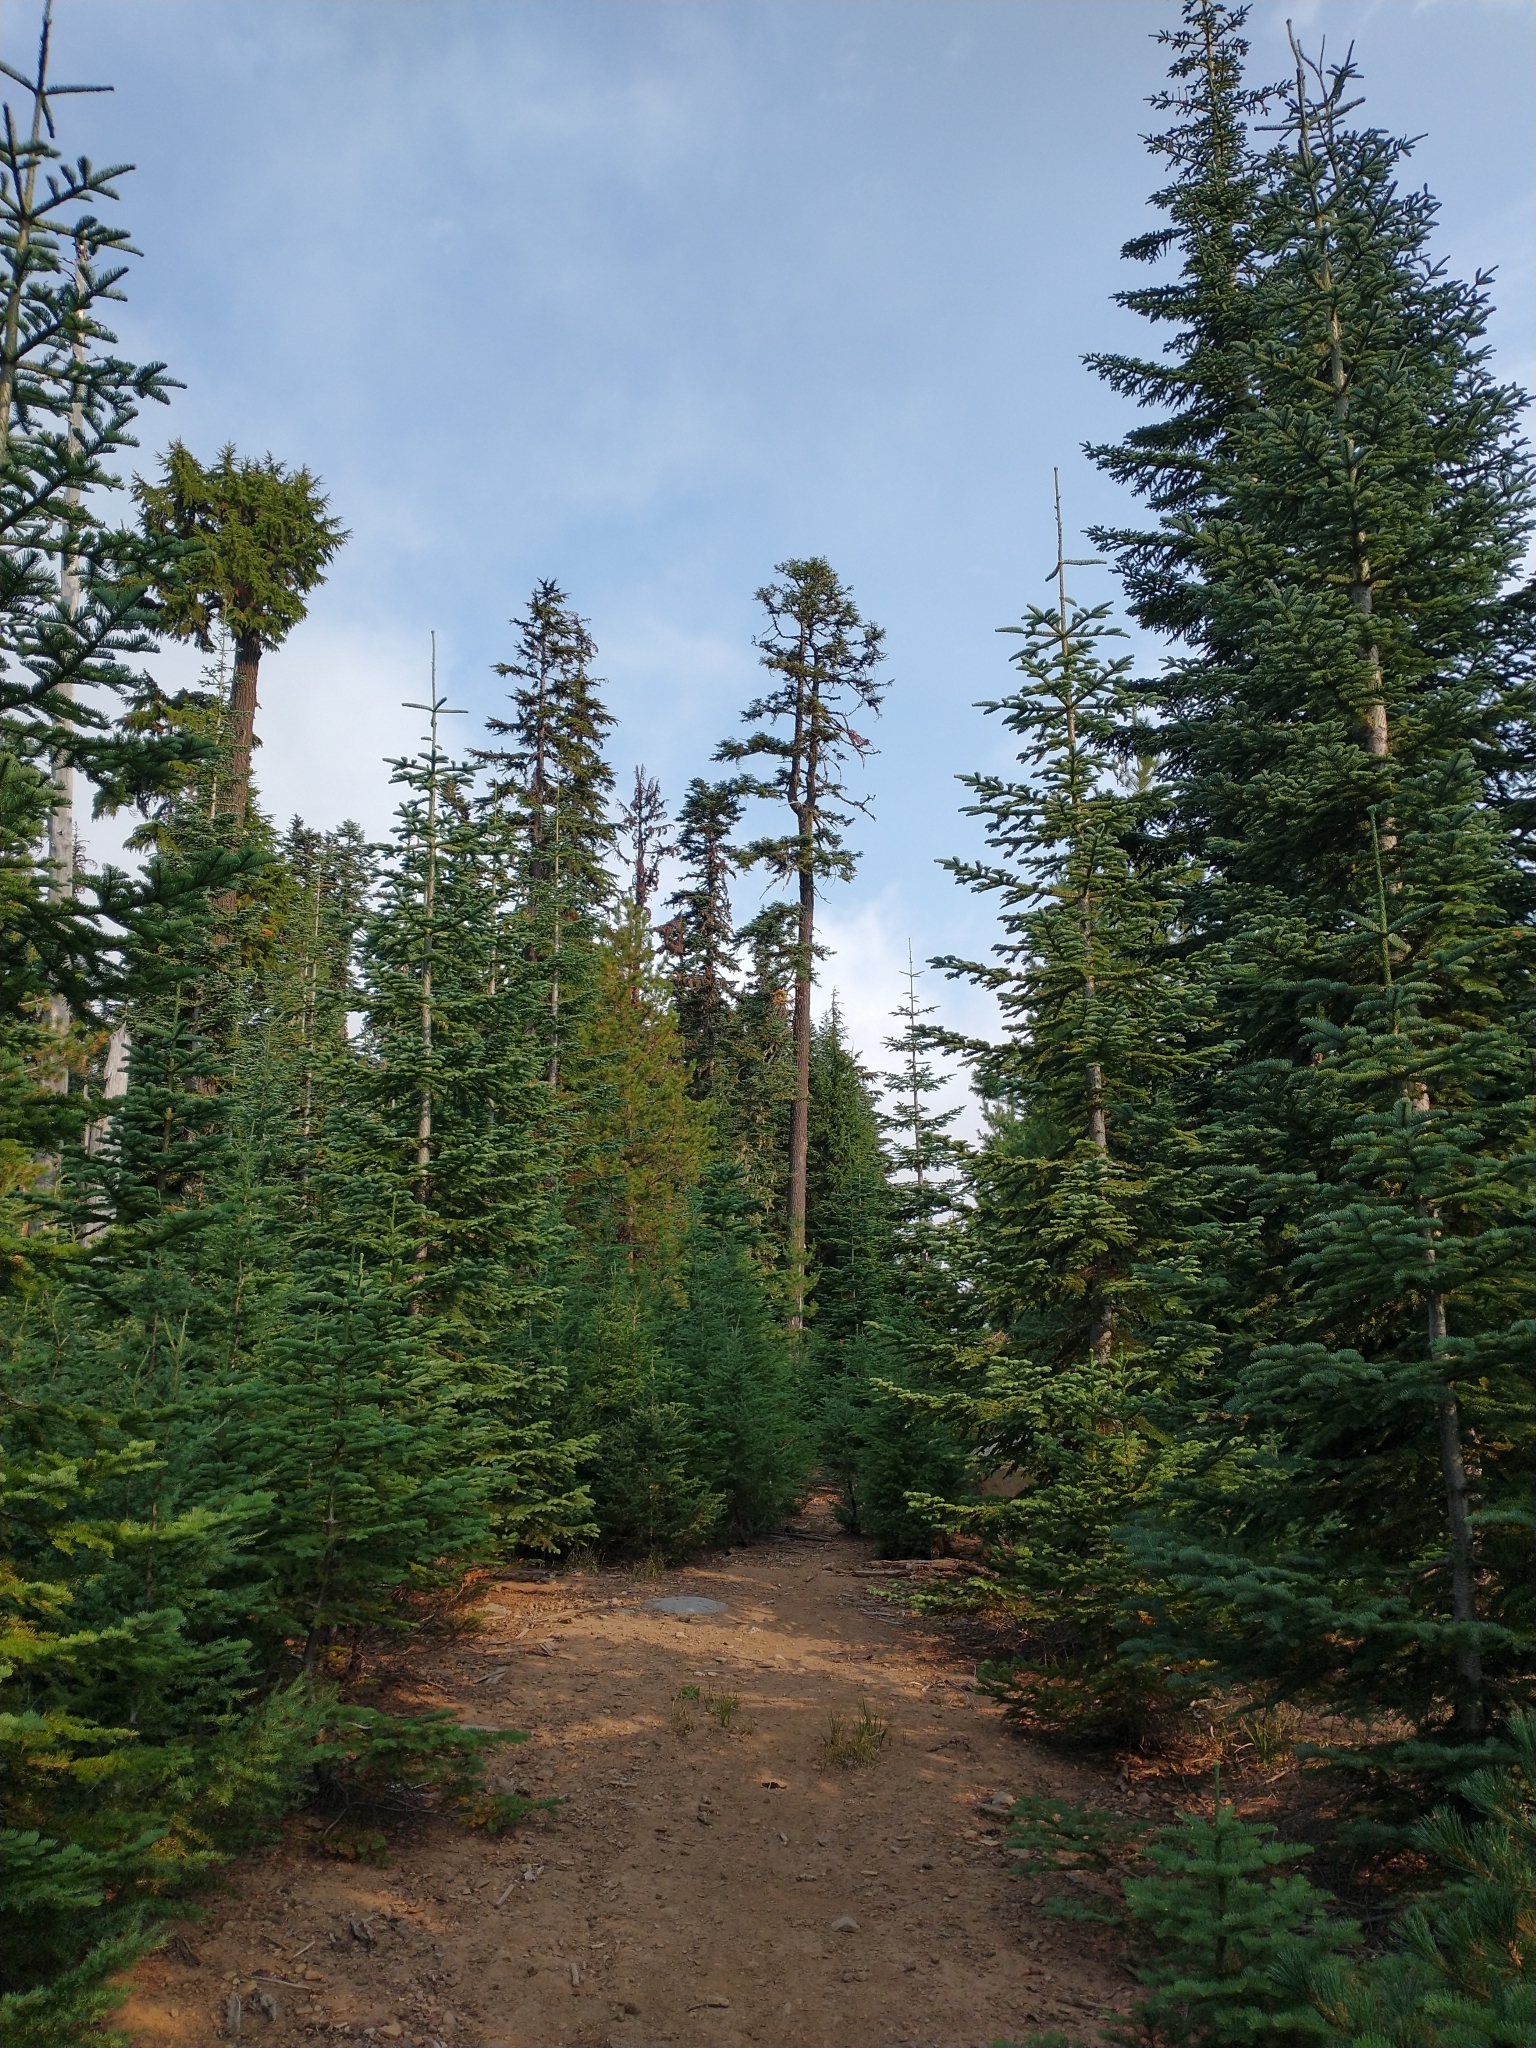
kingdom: Plantae
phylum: Tracheophyta
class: Pinopsida
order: Pinales
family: Pinaceae
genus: Abies
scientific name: Abies procera
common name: Noble fir
